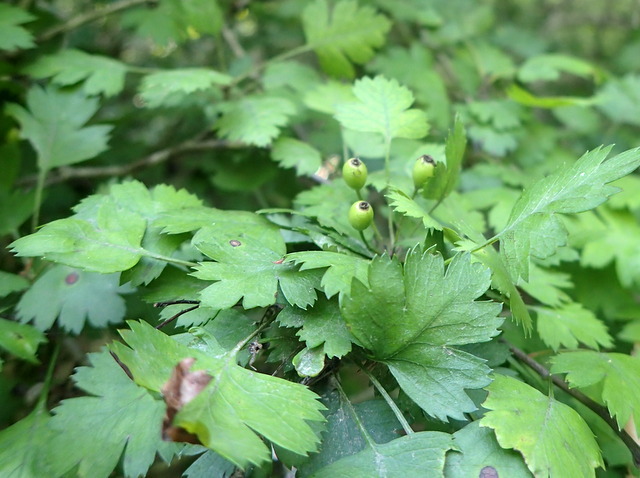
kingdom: Plantae
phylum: Tracheophyta
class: Magnoliopsida
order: Rosales
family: Rosaceae
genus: Crataegus
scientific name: Crataegus marshallii
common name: Parsley-hawthorn
